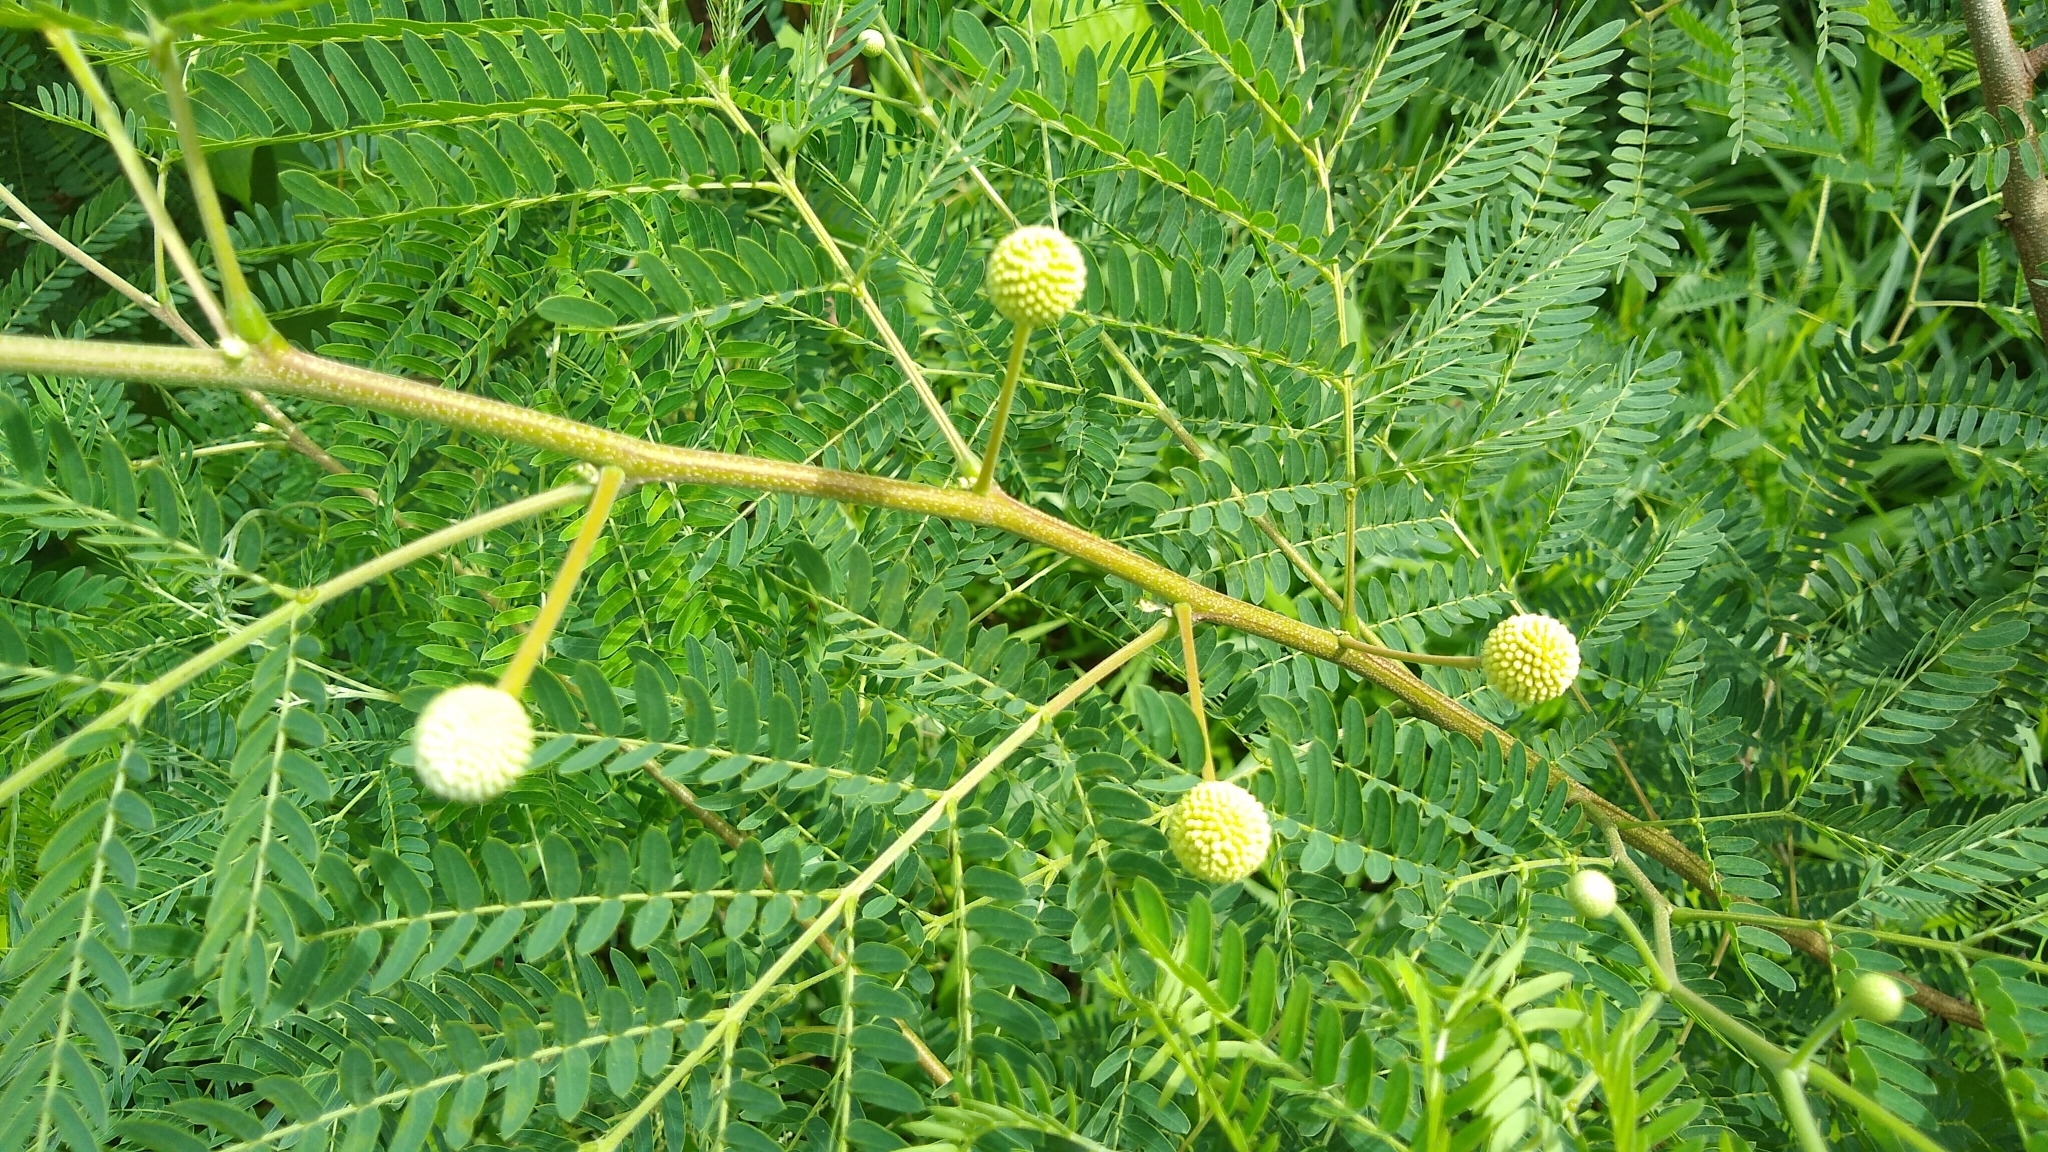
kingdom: Plantae
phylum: Tracheophyta
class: Magnoliopsida
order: Fabales
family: Fabaceae
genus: Leucaena
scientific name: Leucaena leucocephala
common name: White leadtree
